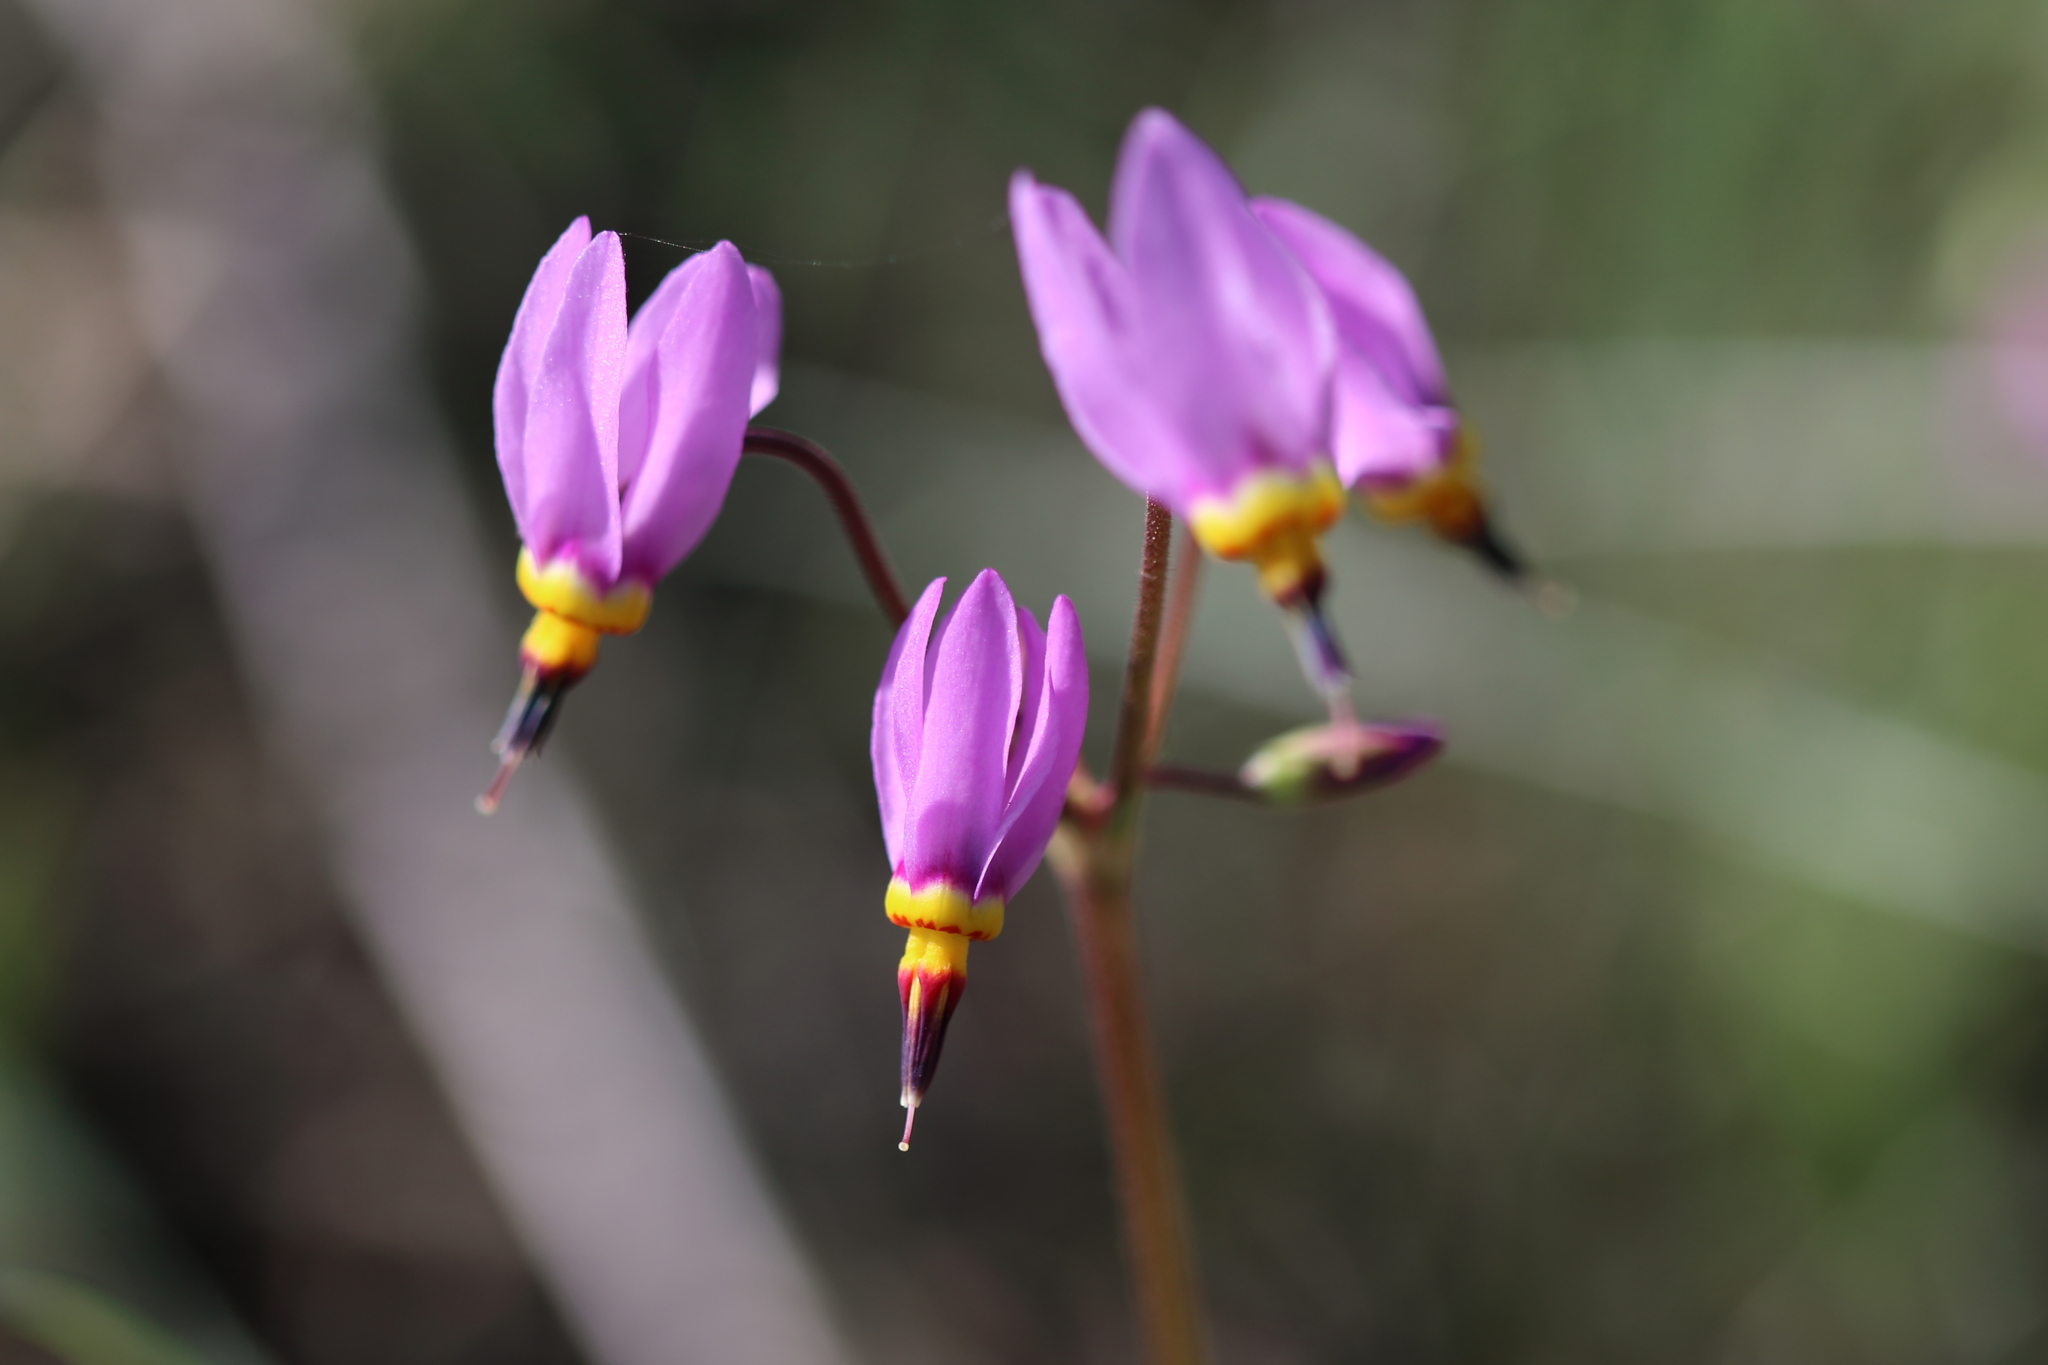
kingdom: Plantae
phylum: Tracheophyta
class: Magnoliopsida
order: Ericales
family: Primulaceae
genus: Dodecatheon
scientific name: Dodecatheon pulchellum
